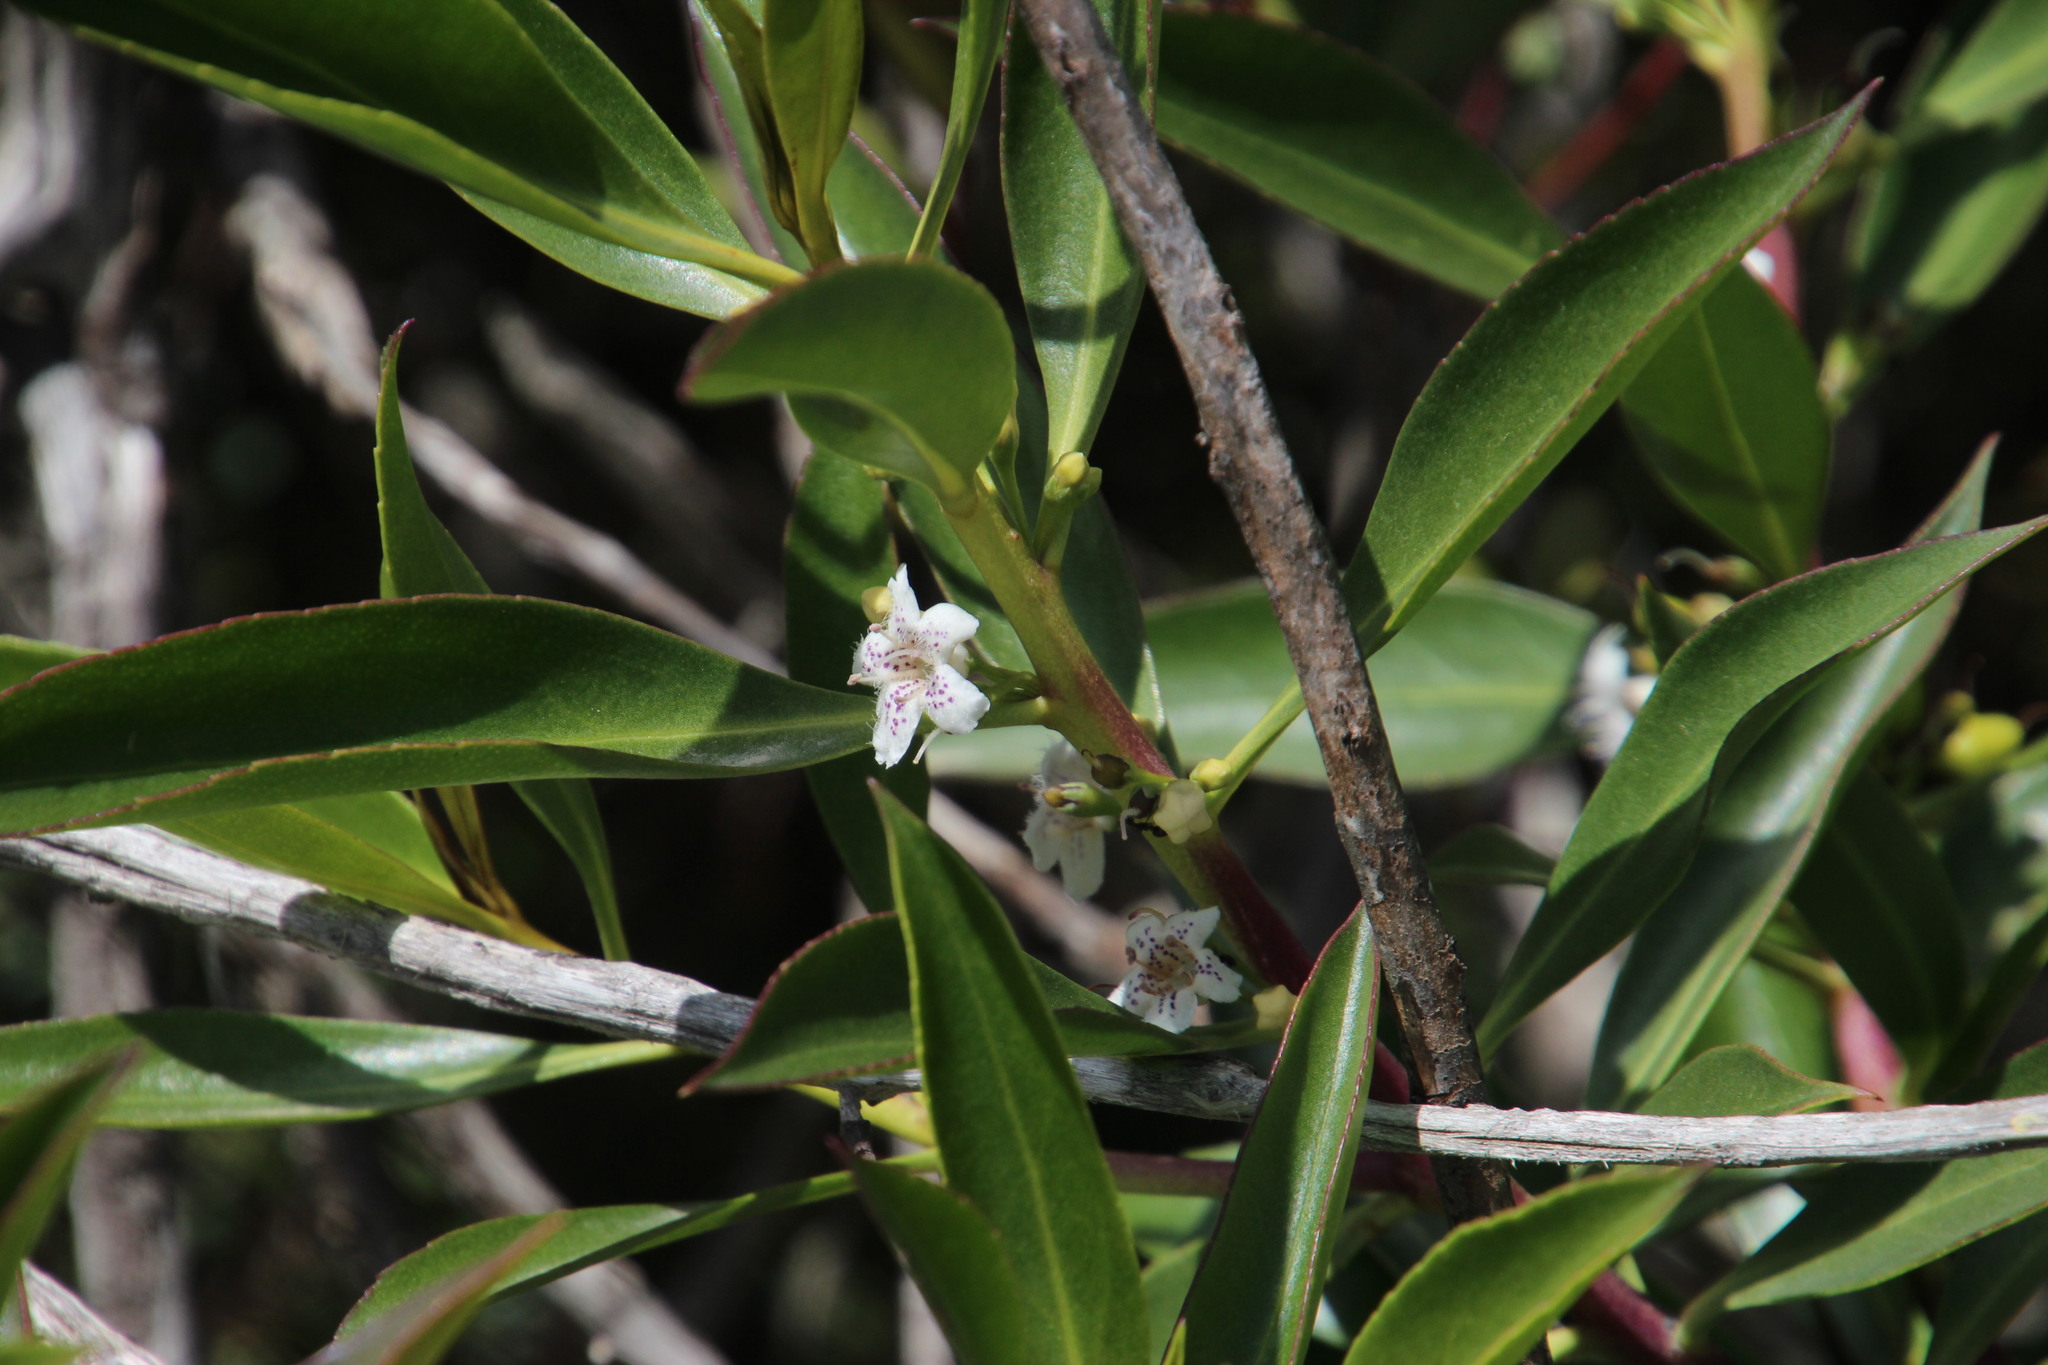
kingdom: Plantae
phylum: Tracheophyta
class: Magnoliopsida
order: Lamiales
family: Scrophulariaceae
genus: Myoporum
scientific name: Myoporum insulare
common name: Common boobialla
